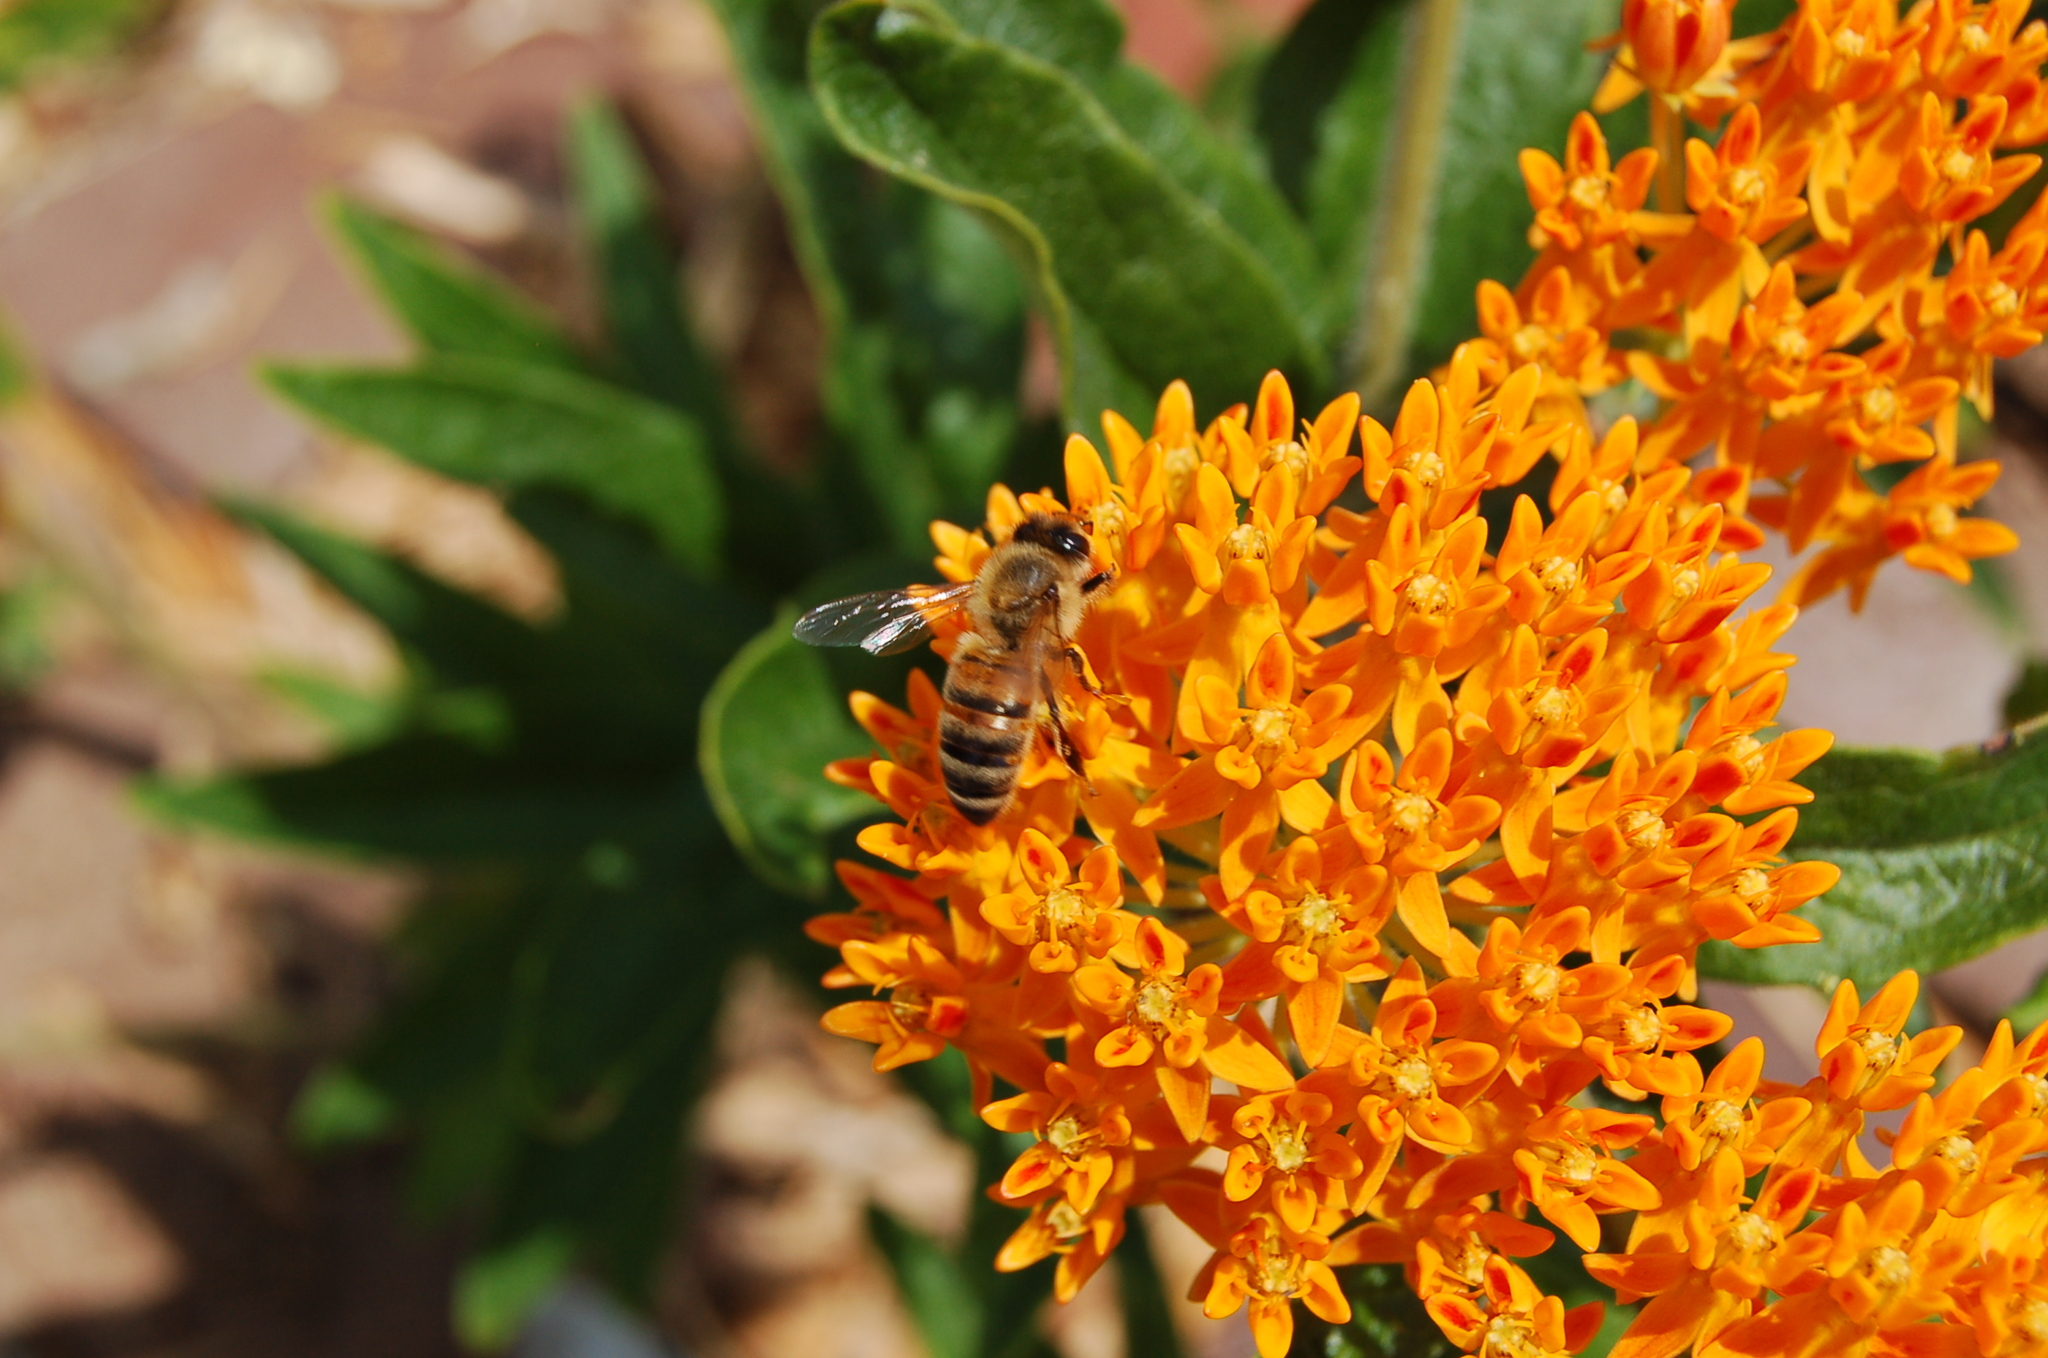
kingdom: Animalia
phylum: Arthropoda
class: Insecta
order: Hymenoptera
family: Apidae
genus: Apis
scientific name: Apis mellifera
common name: Honey bee
